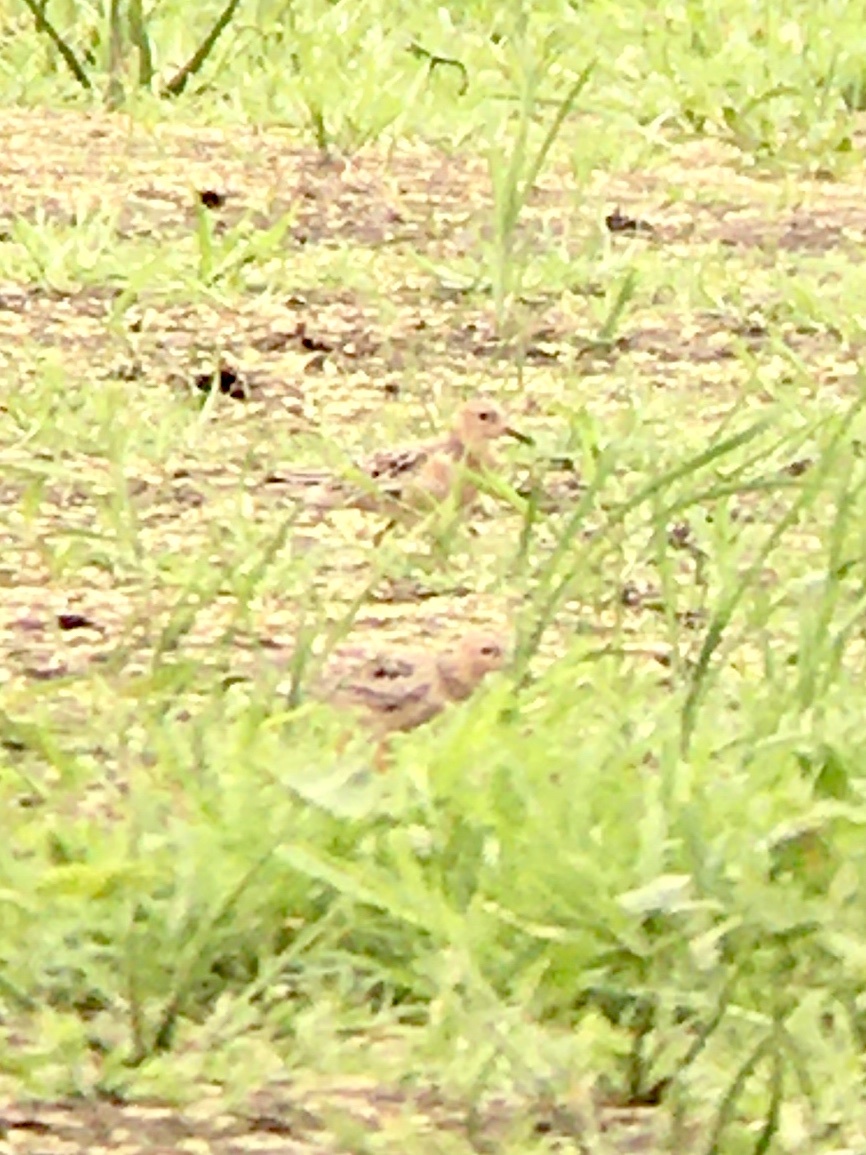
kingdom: Animalia
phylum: Chordata
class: Aves
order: Charadriiformes
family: Scolopacidae
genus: Calidris
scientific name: Calidris subruficollis
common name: Buff-breasted sandpiper
